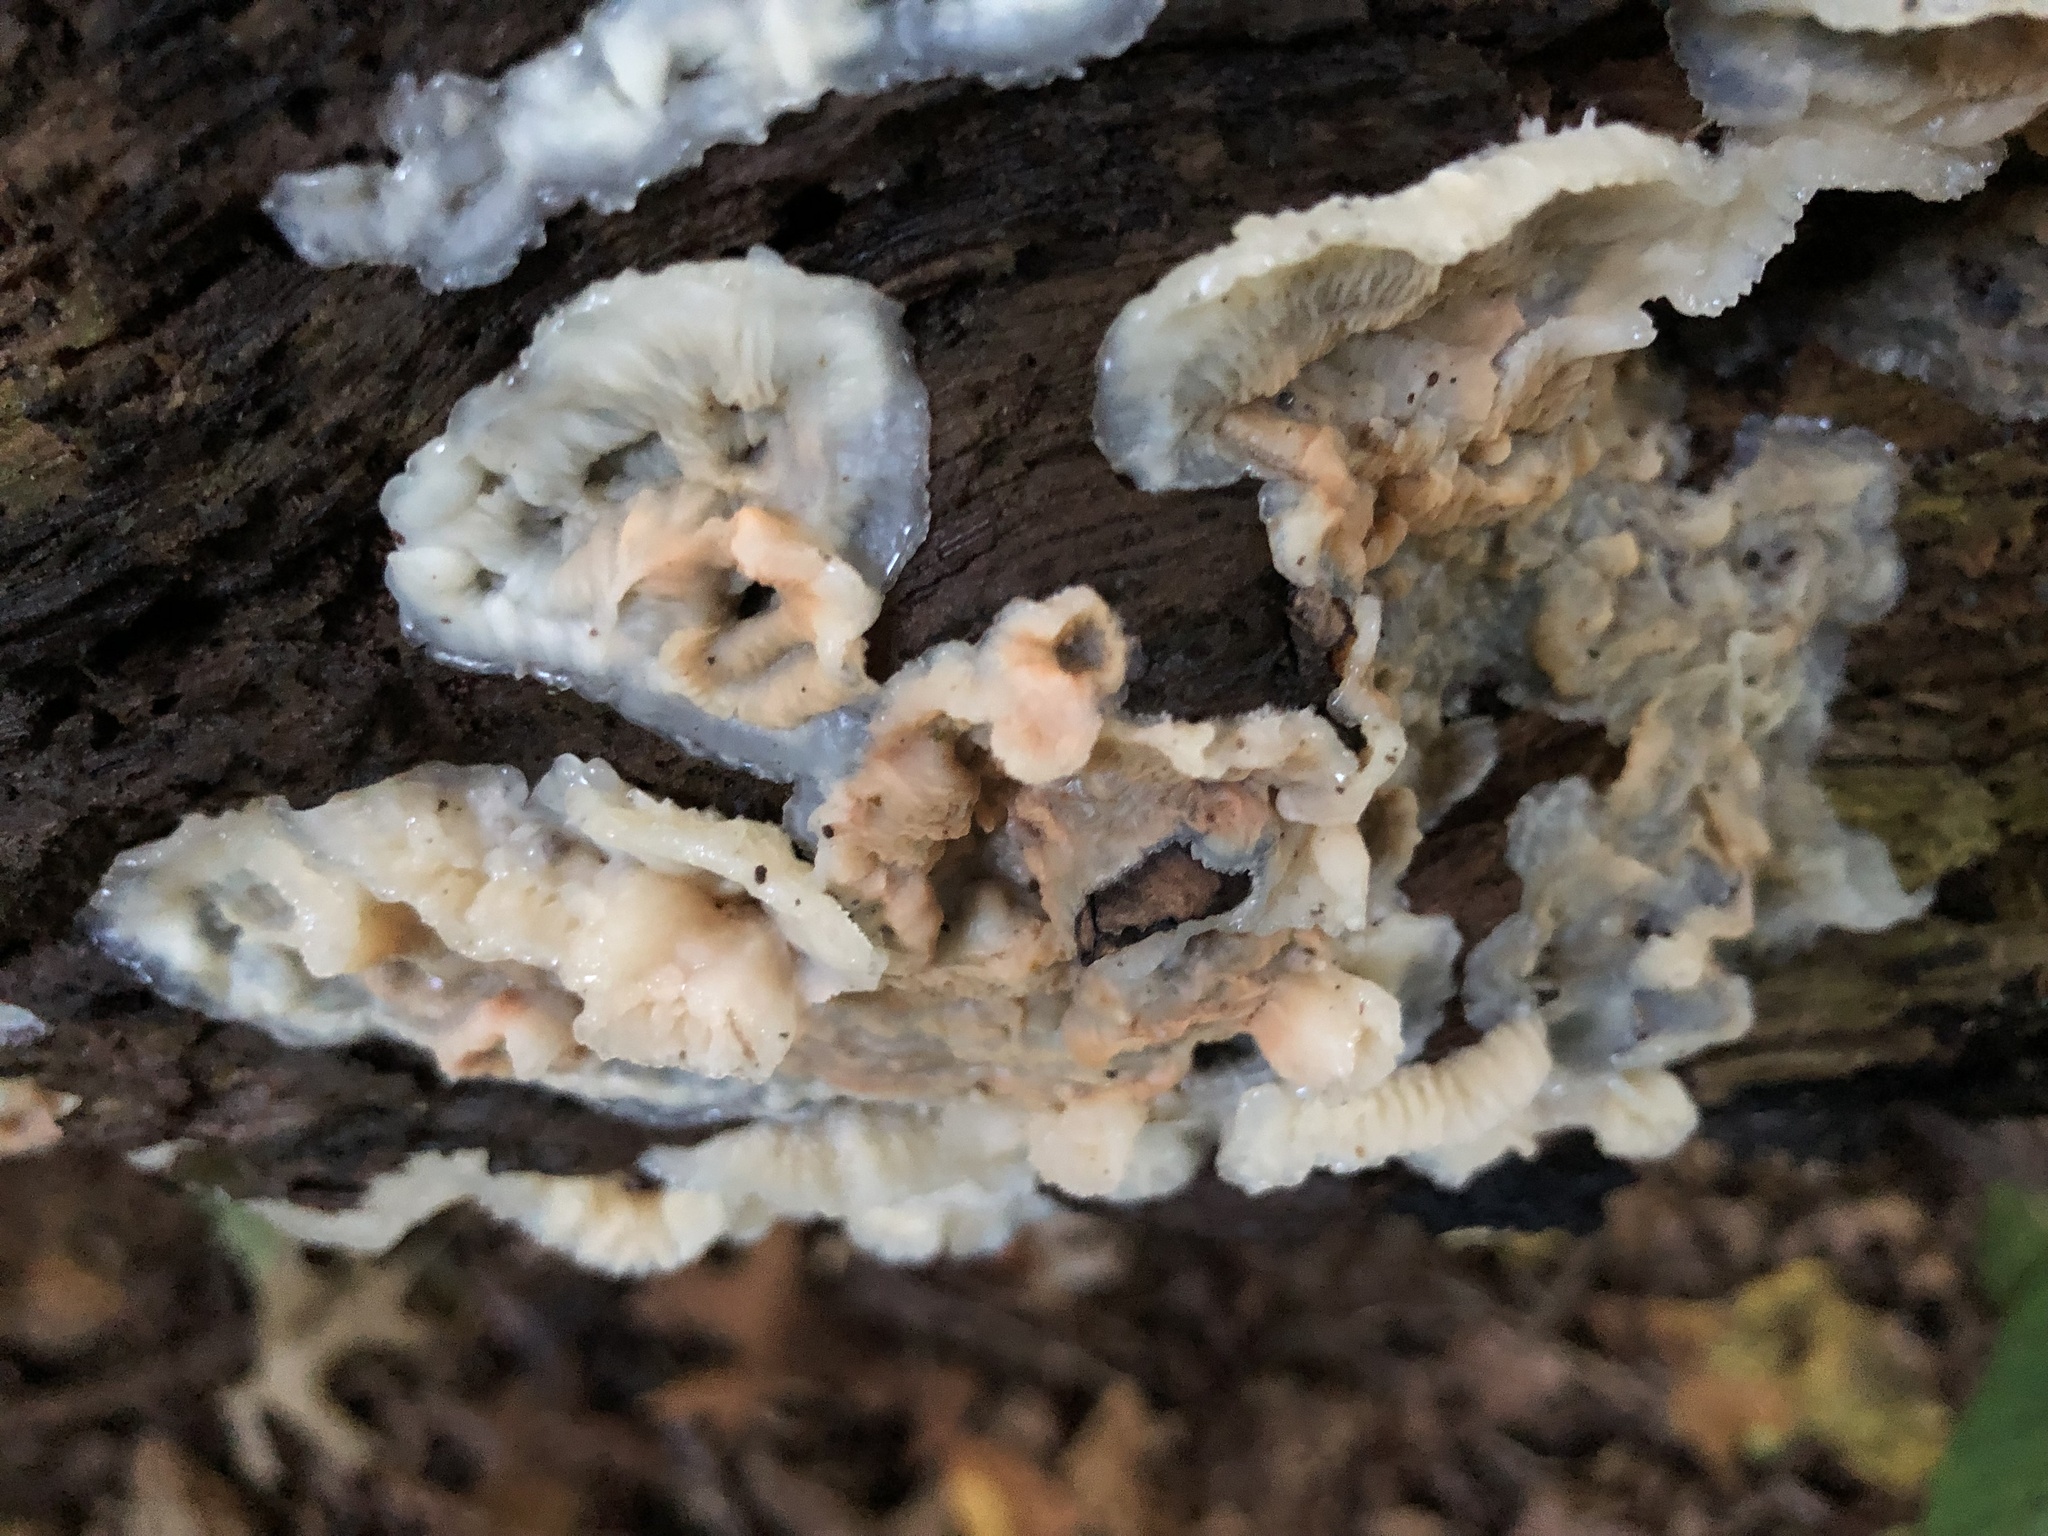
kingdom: Fungi
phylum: Basidiomycota
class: Agaricomycetes
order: Polyporales
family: Meruliaceae
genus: Phlebia
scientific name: Phlebia tremellosa
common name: Jelly rot
